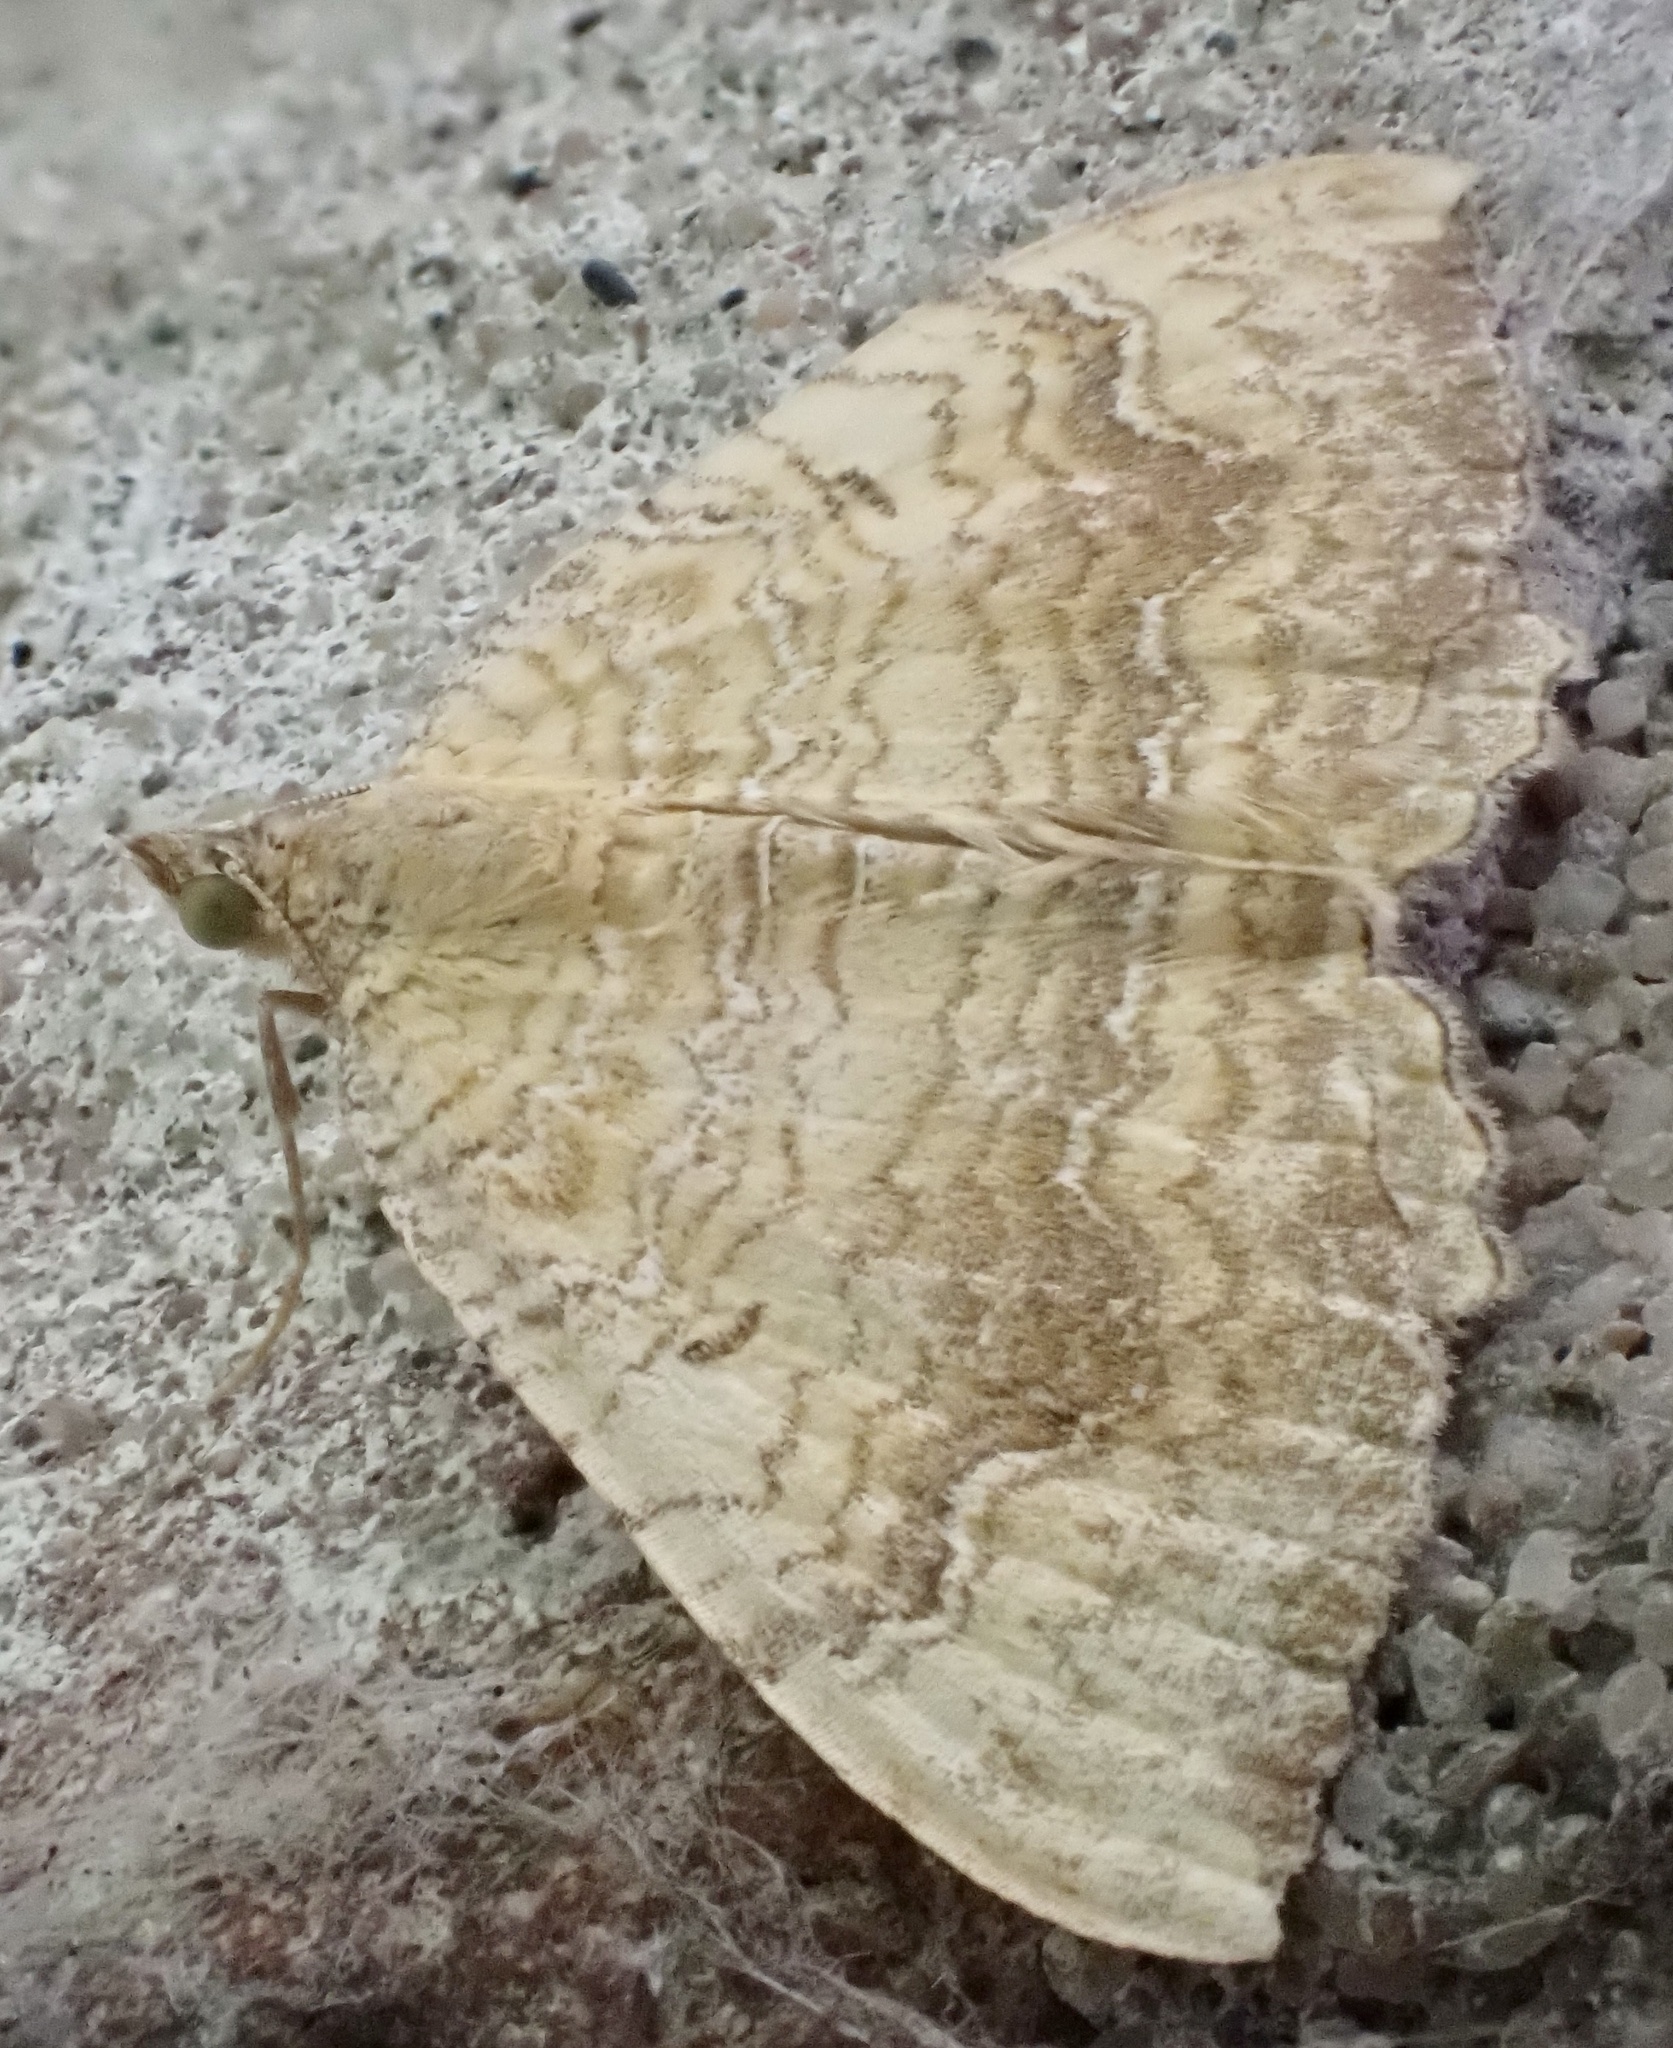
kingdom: Animalia
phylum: Arthropoda
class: Insecta
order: Lepidoptera
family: Geometridae
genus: Camptogramma
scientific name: Camptogramma bilineata
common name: Yellow shell
